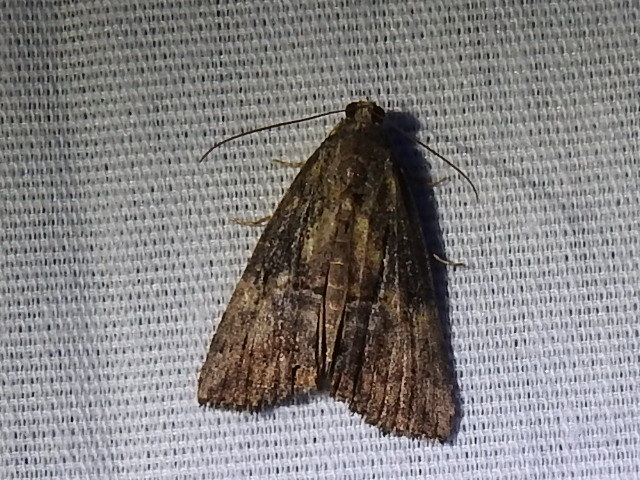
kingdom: Animalia
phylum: Arthropoda
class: Insecta
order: Lepidoptera
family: Erebidae
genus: Hypena
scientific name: Hypena scabra
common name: Green cloverworm
